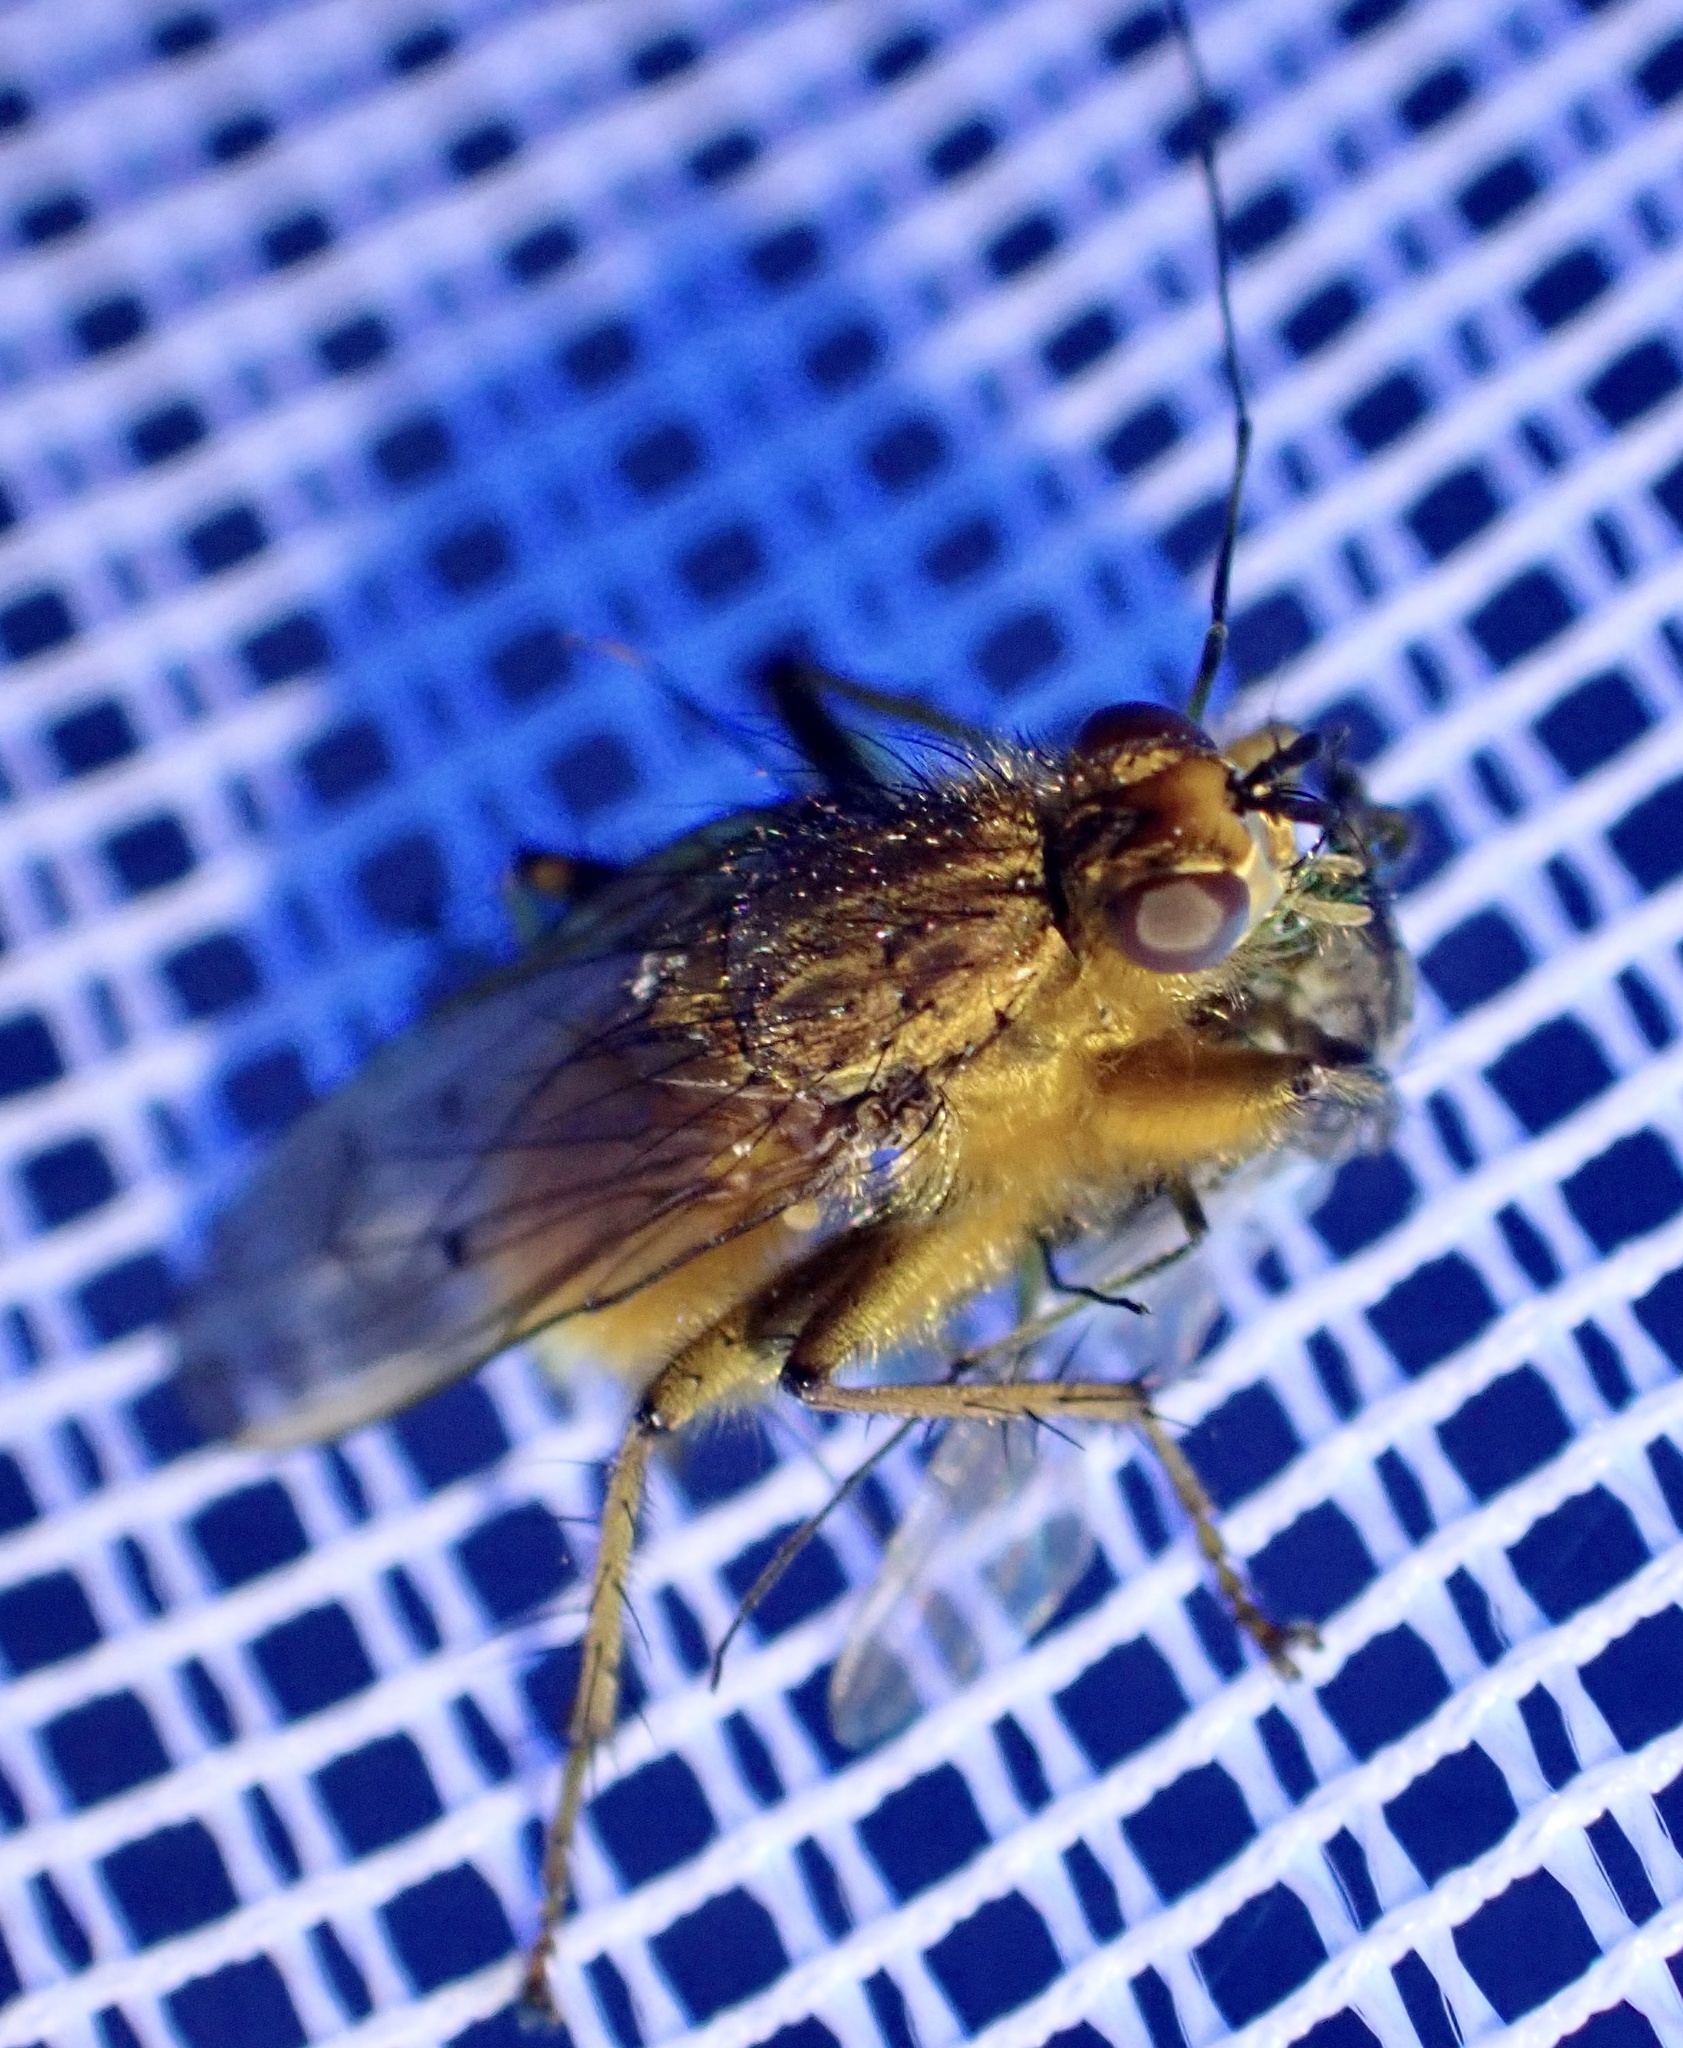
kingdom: Animalia
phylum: Arthropoda
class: Insecta
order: Diptera
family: Scathophagidae
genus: Scathophaga
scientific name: Scathophaga stercoraria
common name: Yellow dung fly
